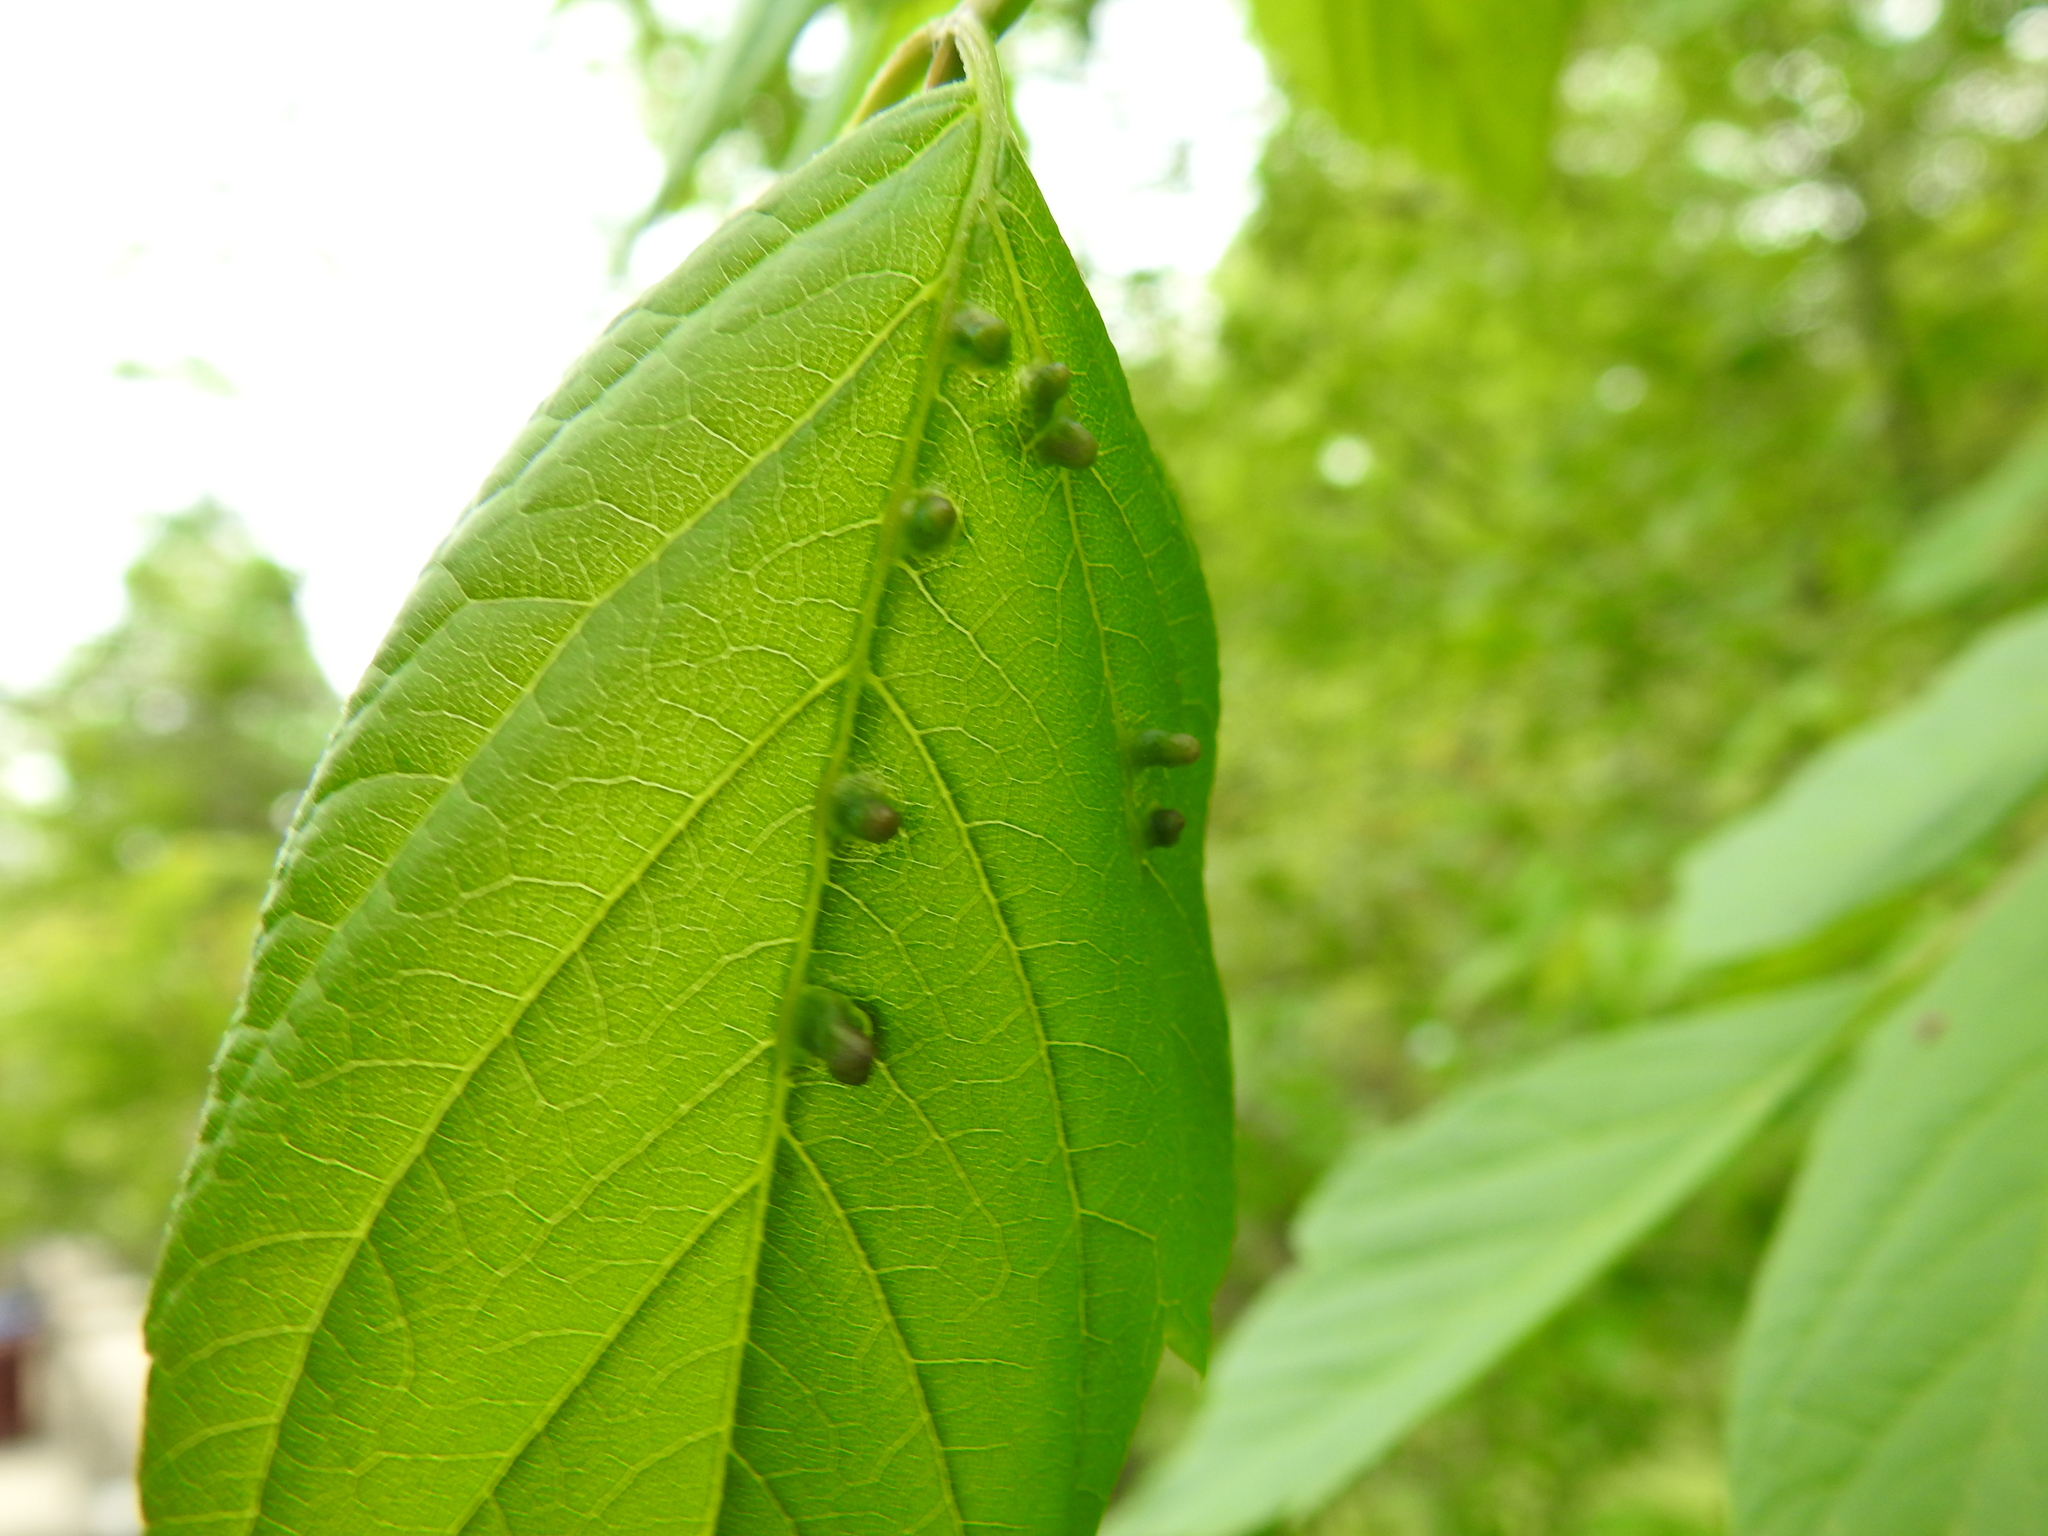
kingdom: Animalia
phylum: Arthropoda
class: Arachnida
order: Trombidiformes
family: Eriophyidae
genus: Aceria
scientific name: Aceria
